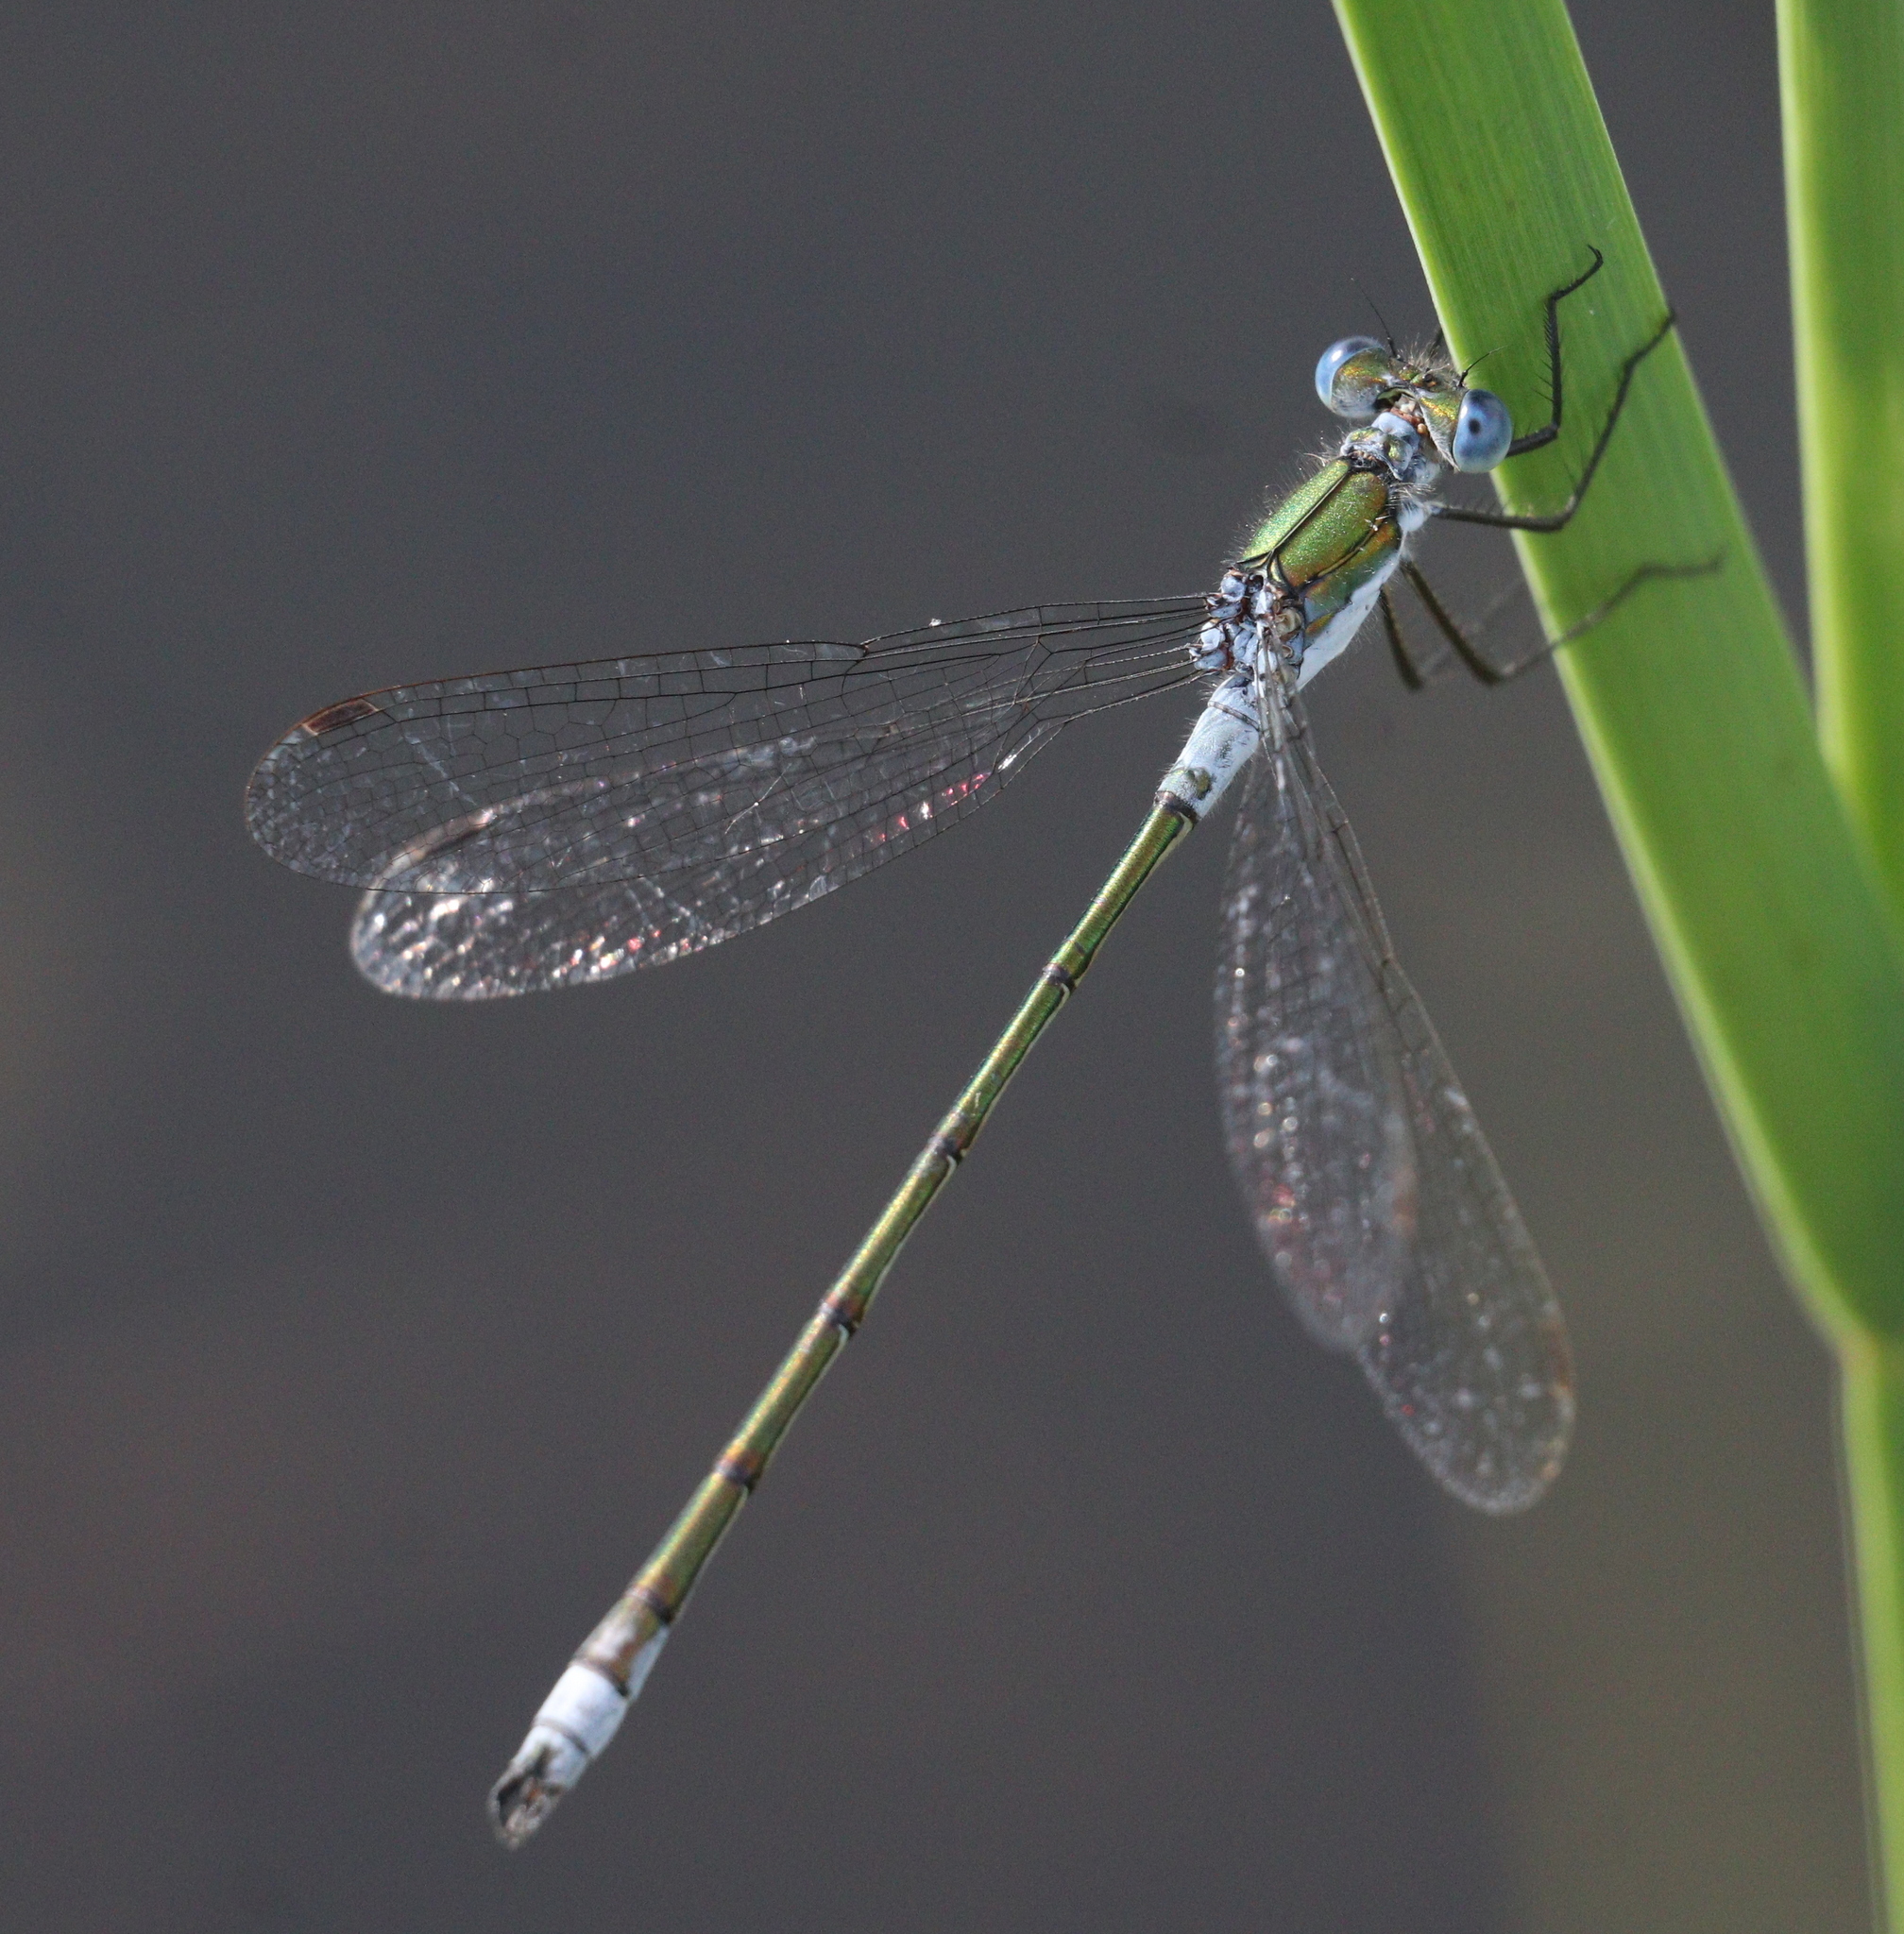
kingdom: Animalia
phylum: Arthropoda
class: Insecta
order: Odonata
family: Lestidae
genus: Lestes
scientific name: Lestes sponsa
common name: Common spreadwing
